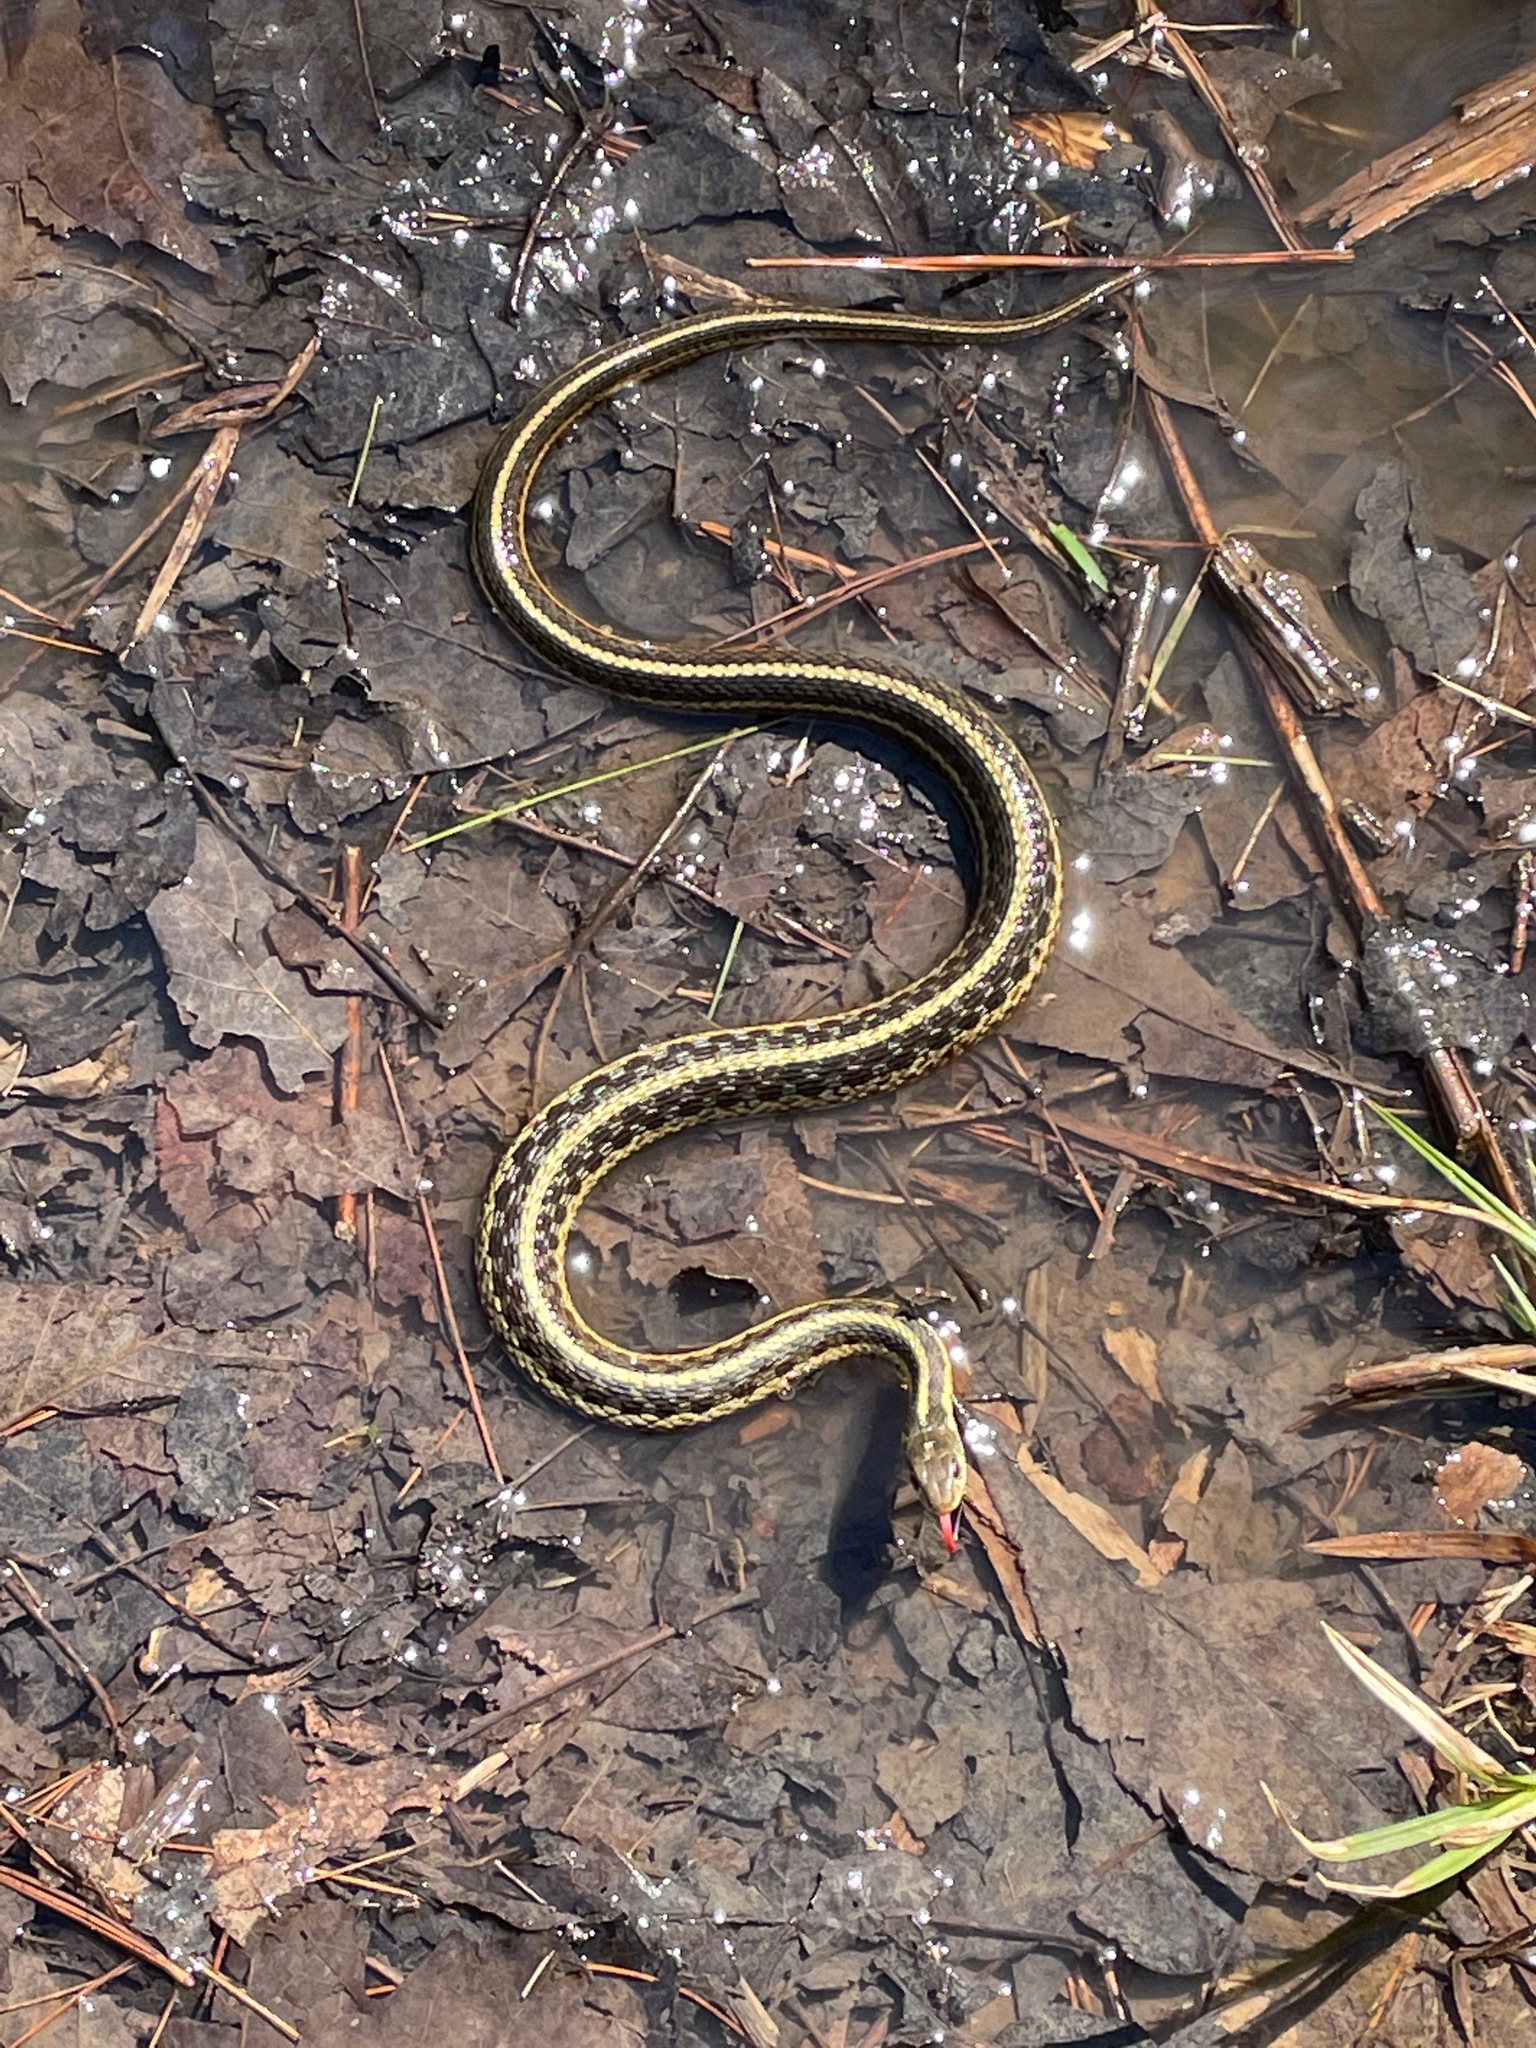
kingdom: Animalia
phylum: Chordata
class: Squamata
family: Colubridae
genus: Thamnophis
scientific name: Thamnophis sirtalis
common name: Common garter snake
